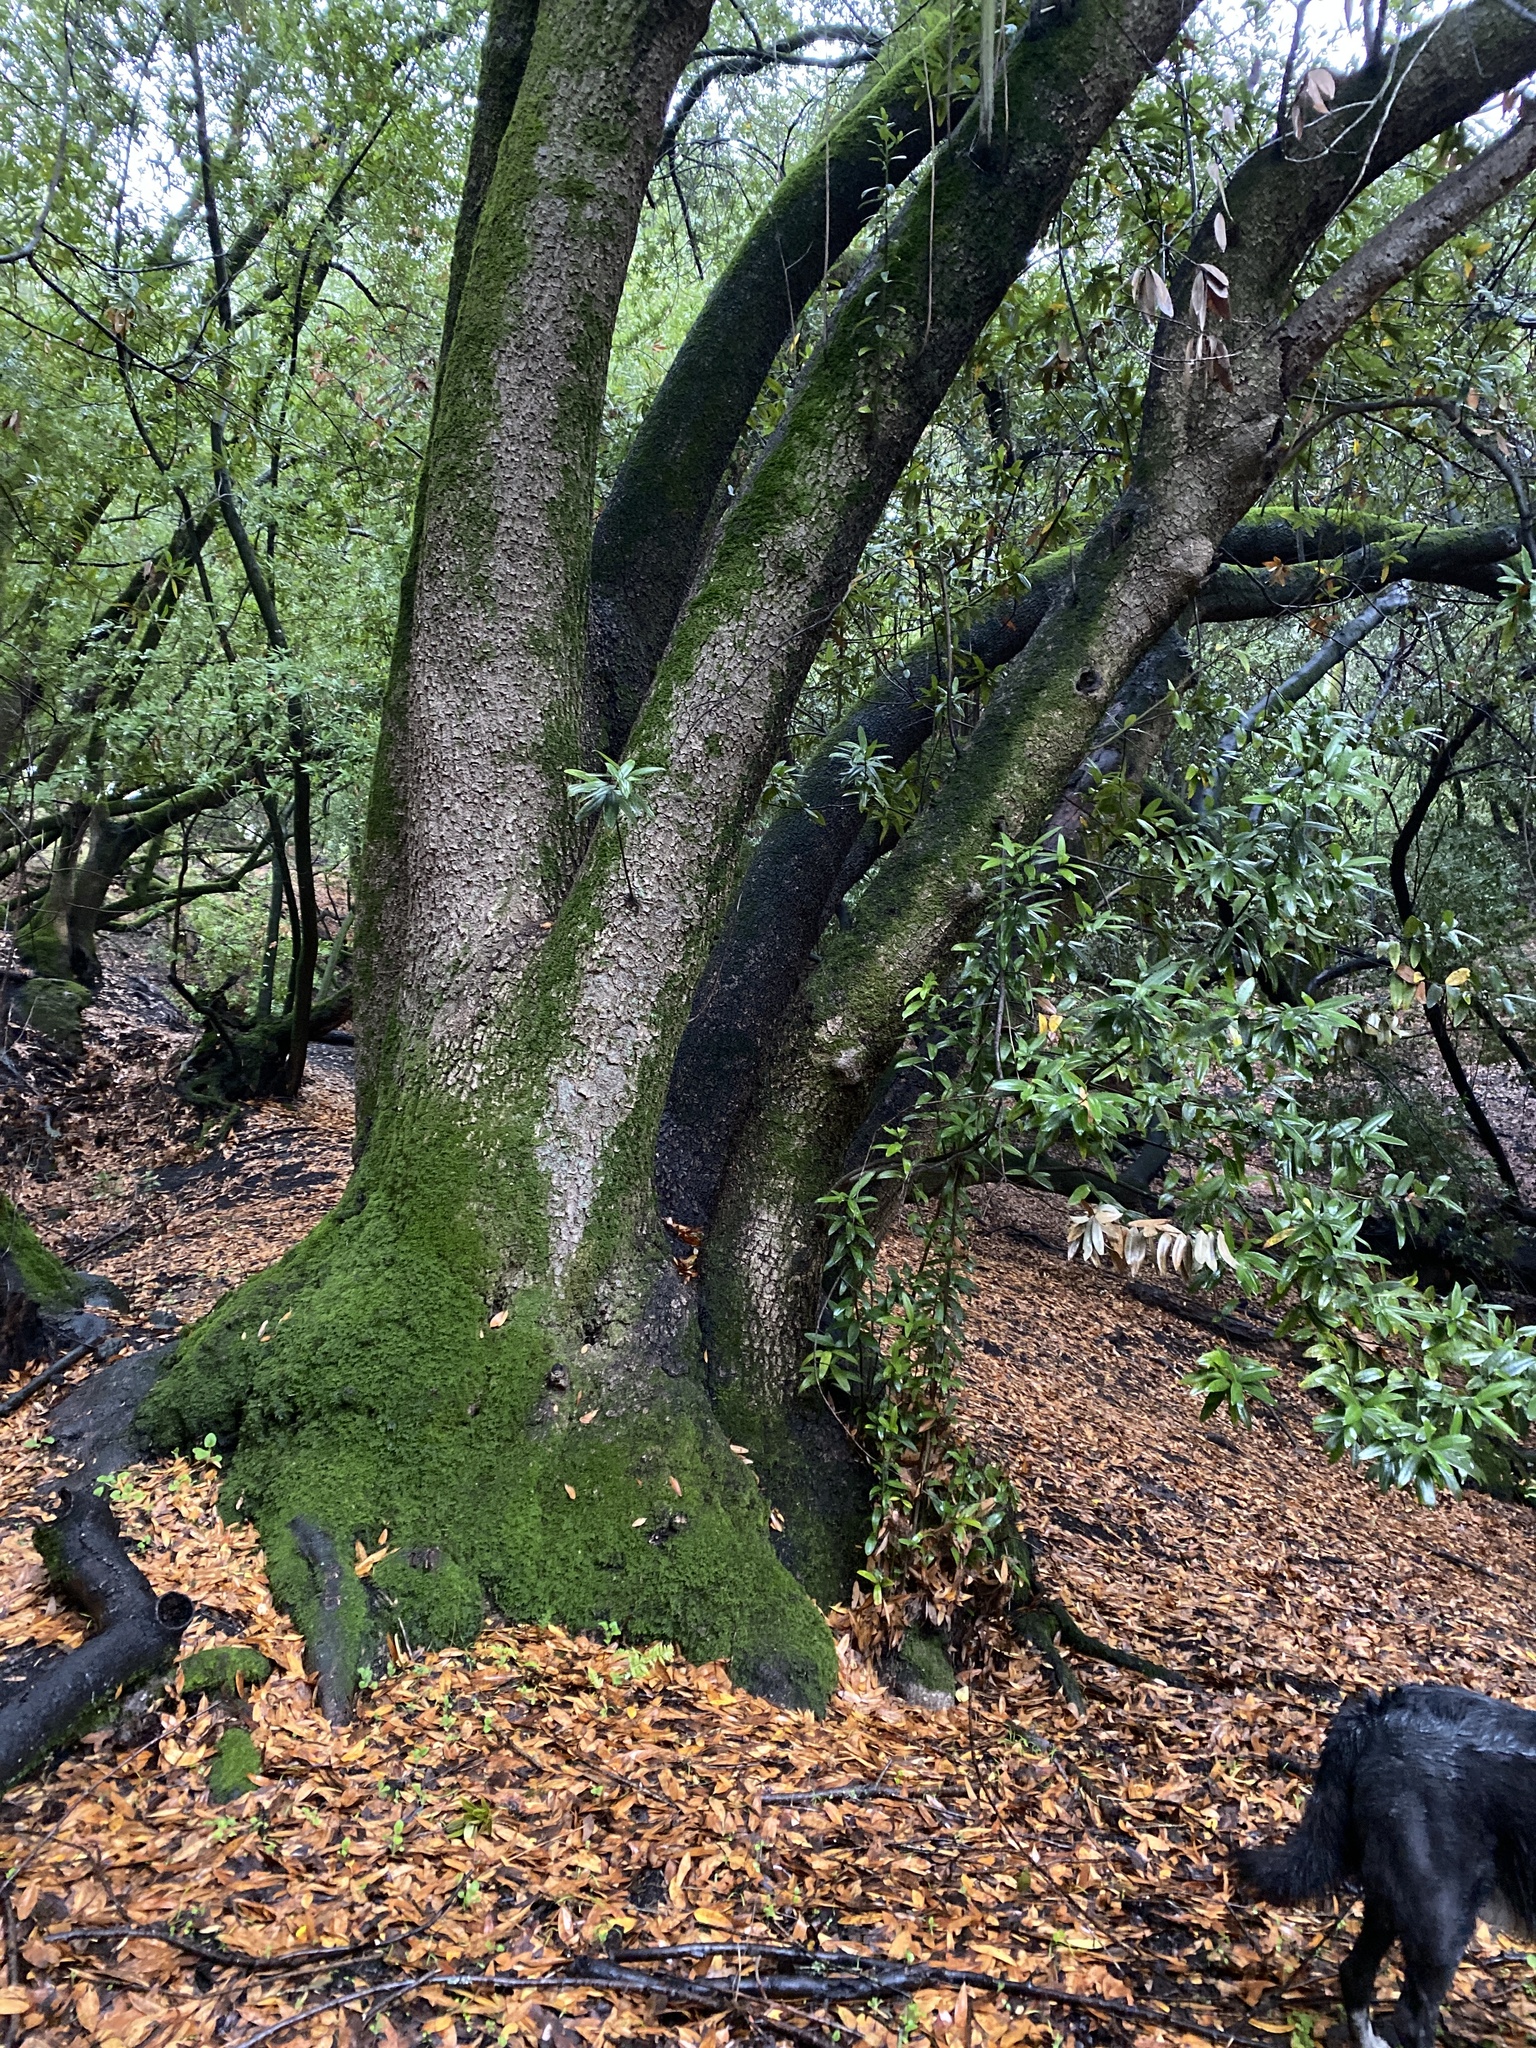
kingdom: Plantae
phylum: Tracheophyta
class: Magnoliopsida
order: Laurales
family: Lauraceae
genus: Umbellularia
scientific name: Umbellularia californica
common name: California bay
